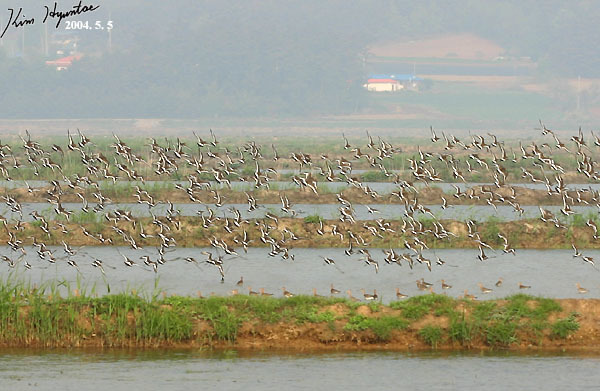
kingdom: Animalia
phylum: Chordata
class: Aves
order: Charadriiformes
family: Scolopacidae
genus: Limosa
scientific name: Limosa limosa
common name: Black-tailed godwit
